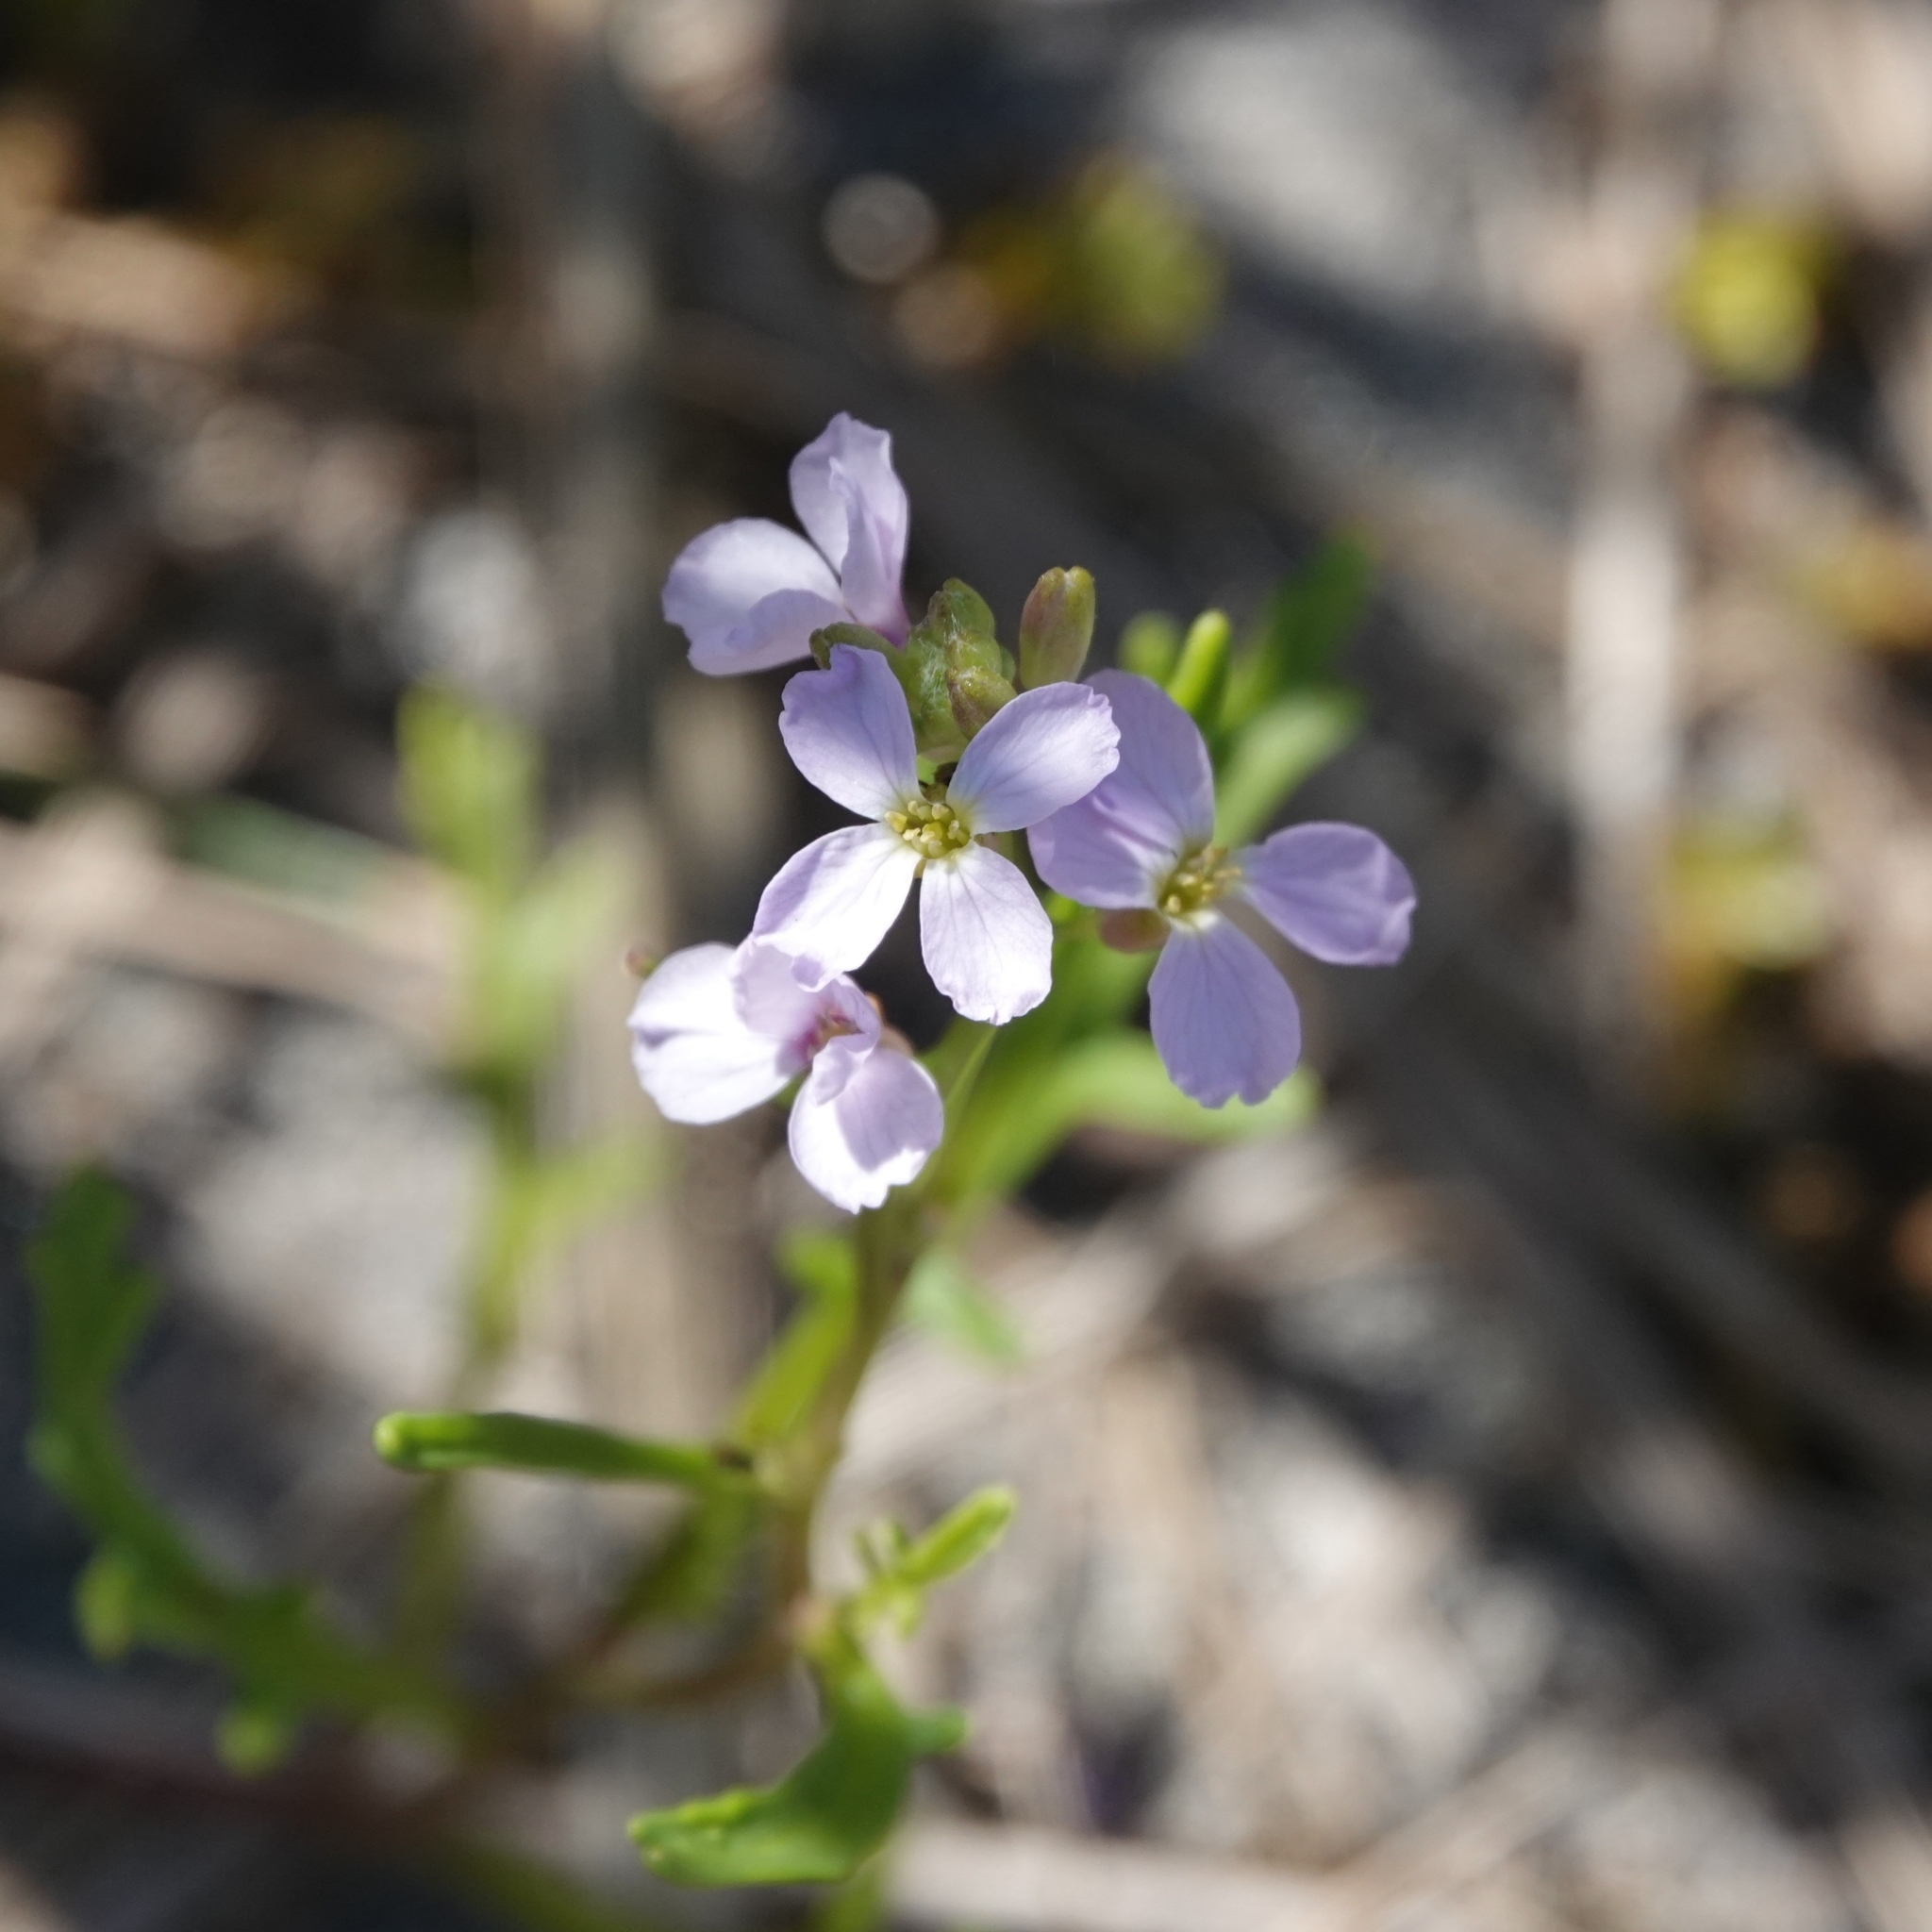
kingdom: Plantae
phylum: Tracheophyta
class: Magnoliopsida
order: Brassicales
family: Brassicaceae
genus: Cakile
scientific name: Cakile maritima
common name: Sea rocket
